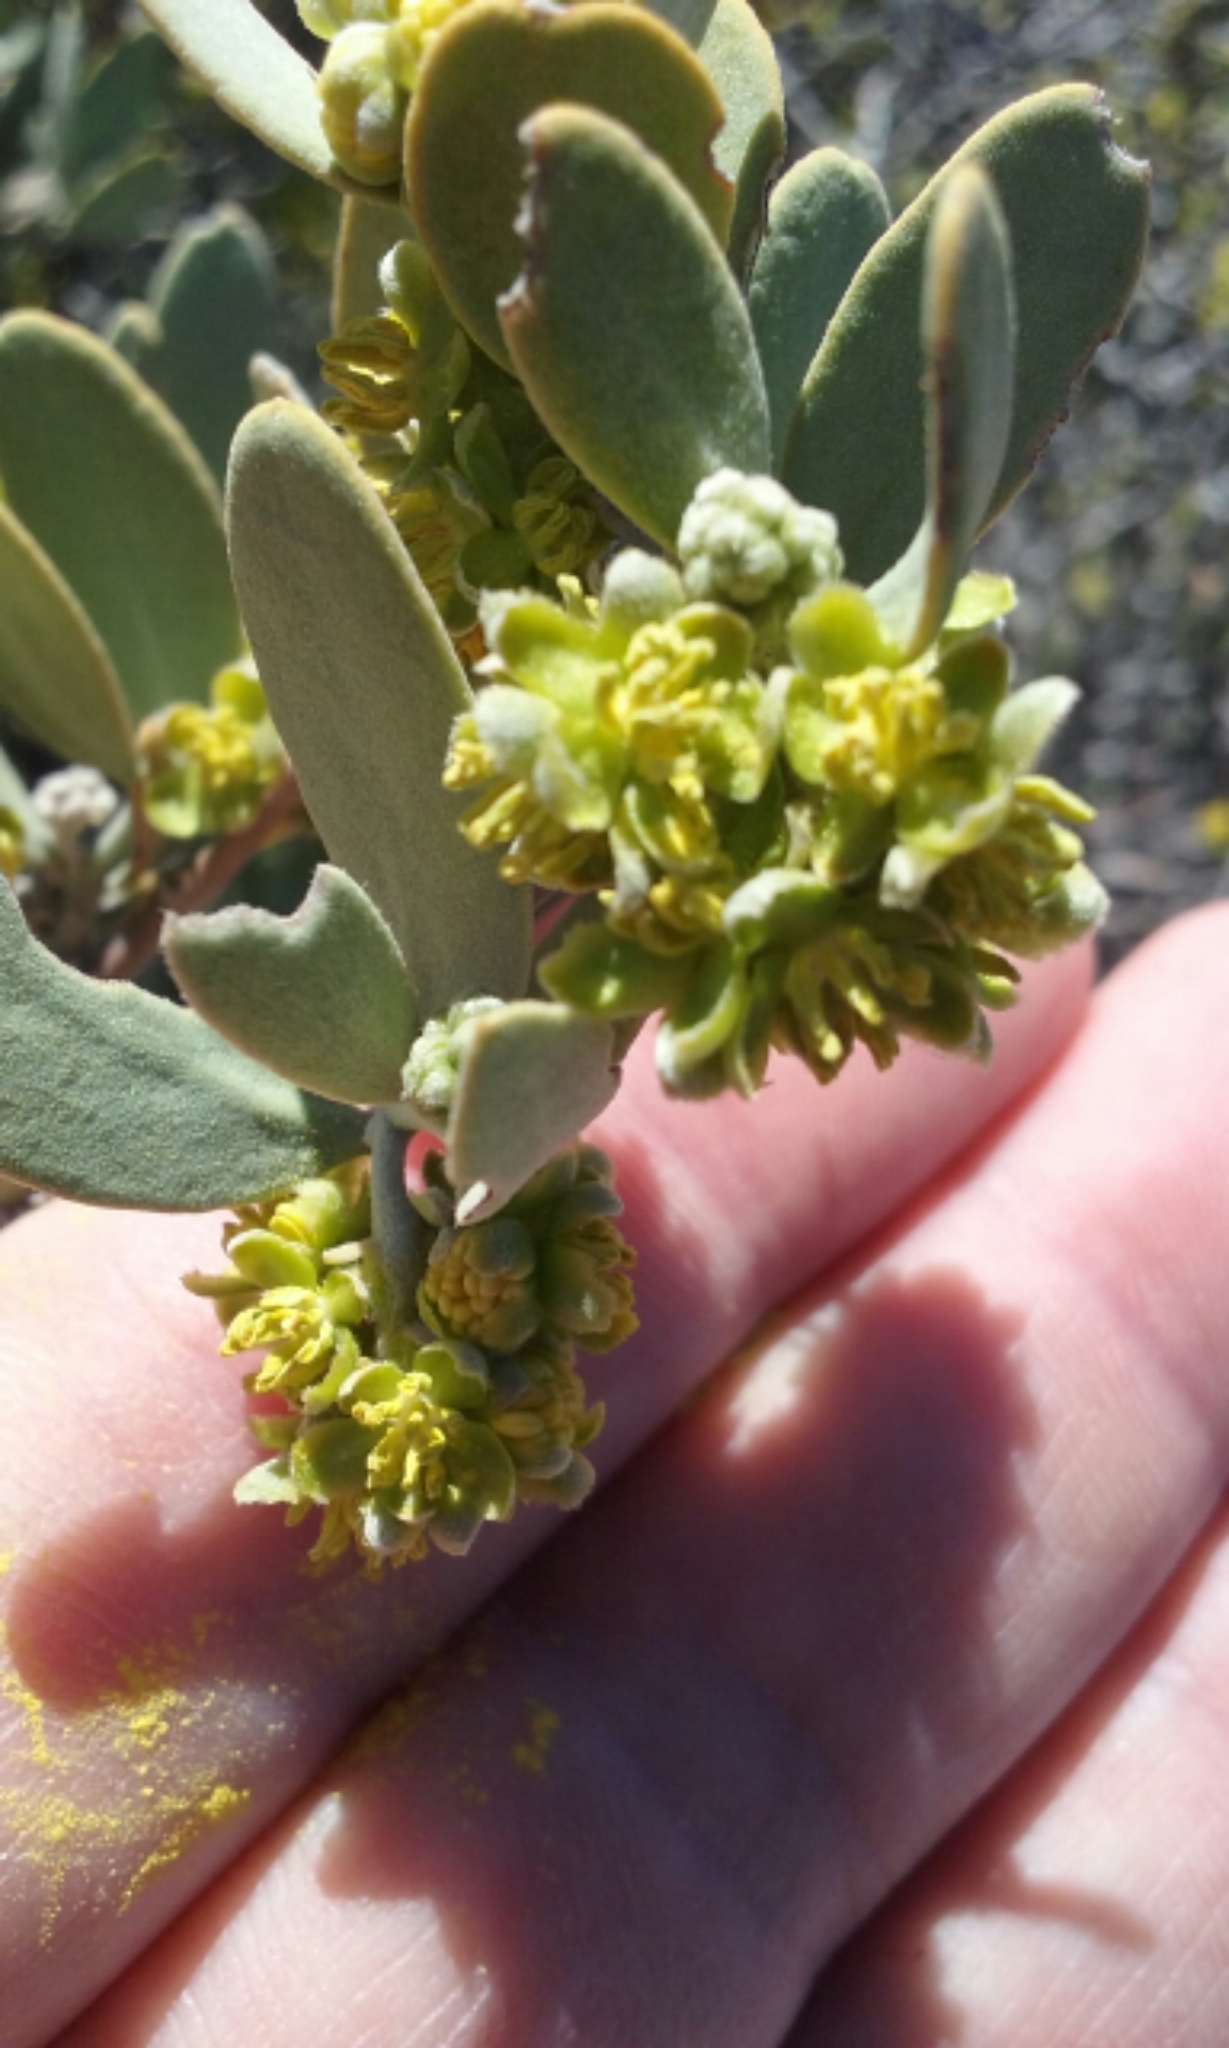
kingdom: Plantae
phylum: Tracheophyta
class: Magnoliopsida
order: Caryophyllales
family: Simmondsiaceae
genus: Simmondsia
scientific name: Simmondsia chinensis
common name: Jojoba
